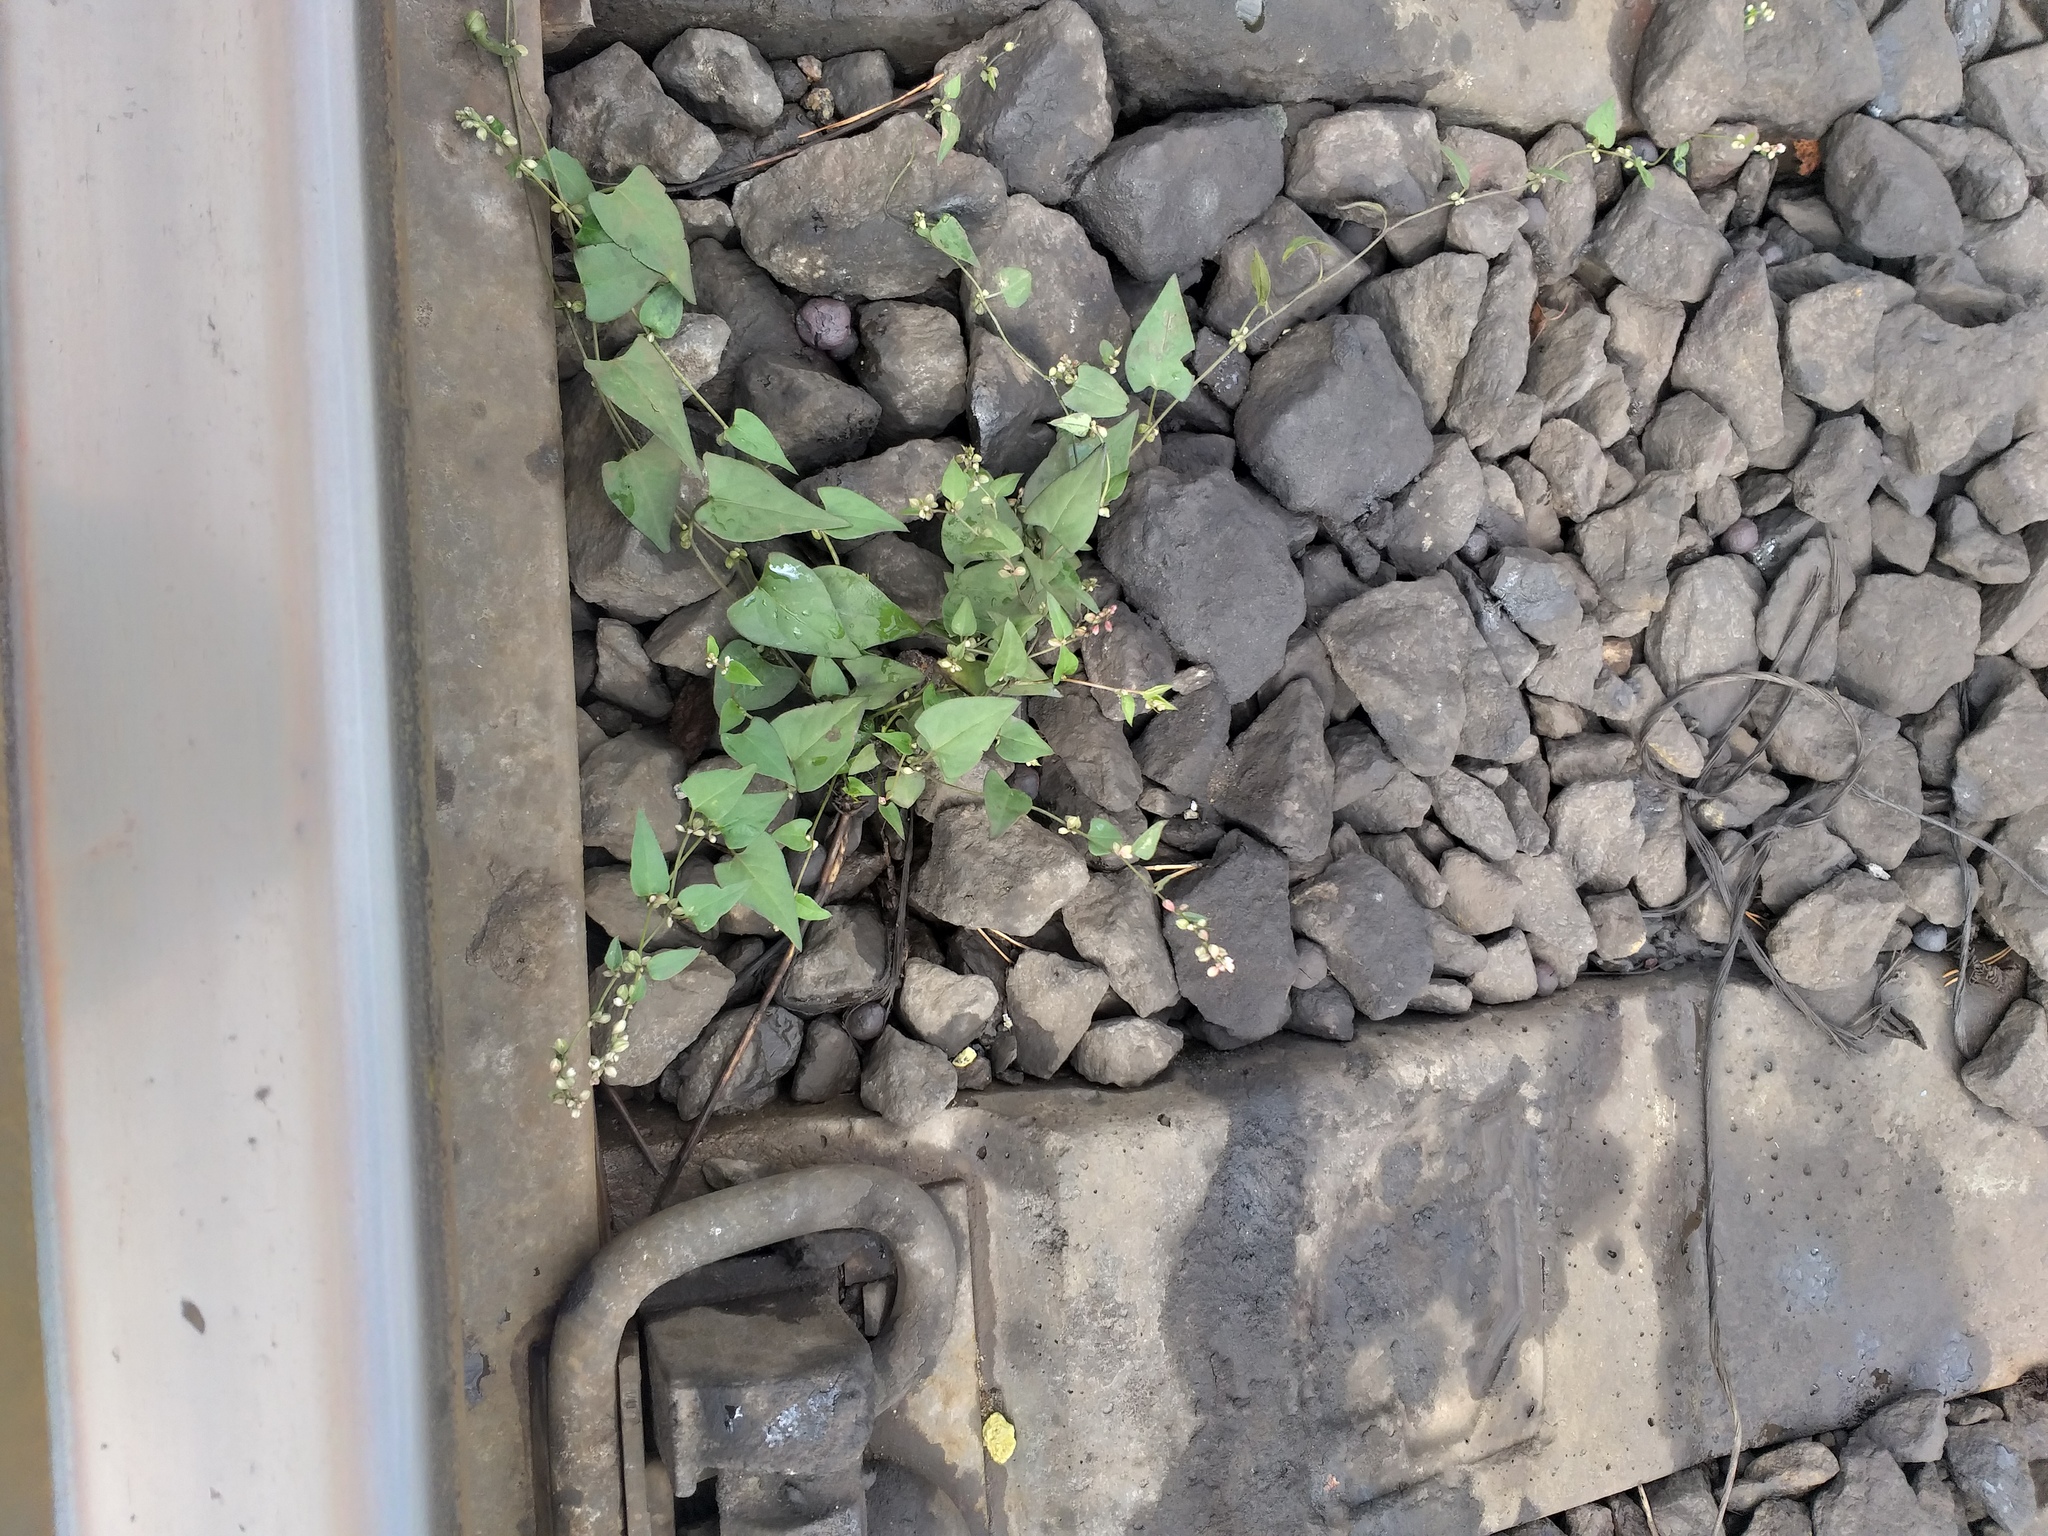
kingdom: Plantae
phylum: Tracheophyta
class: Magnoliopsida
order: Caryophyllales
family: Polygonaceae
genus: Fallopia
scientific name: Fallopia convolvulus
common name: Black bindweed
